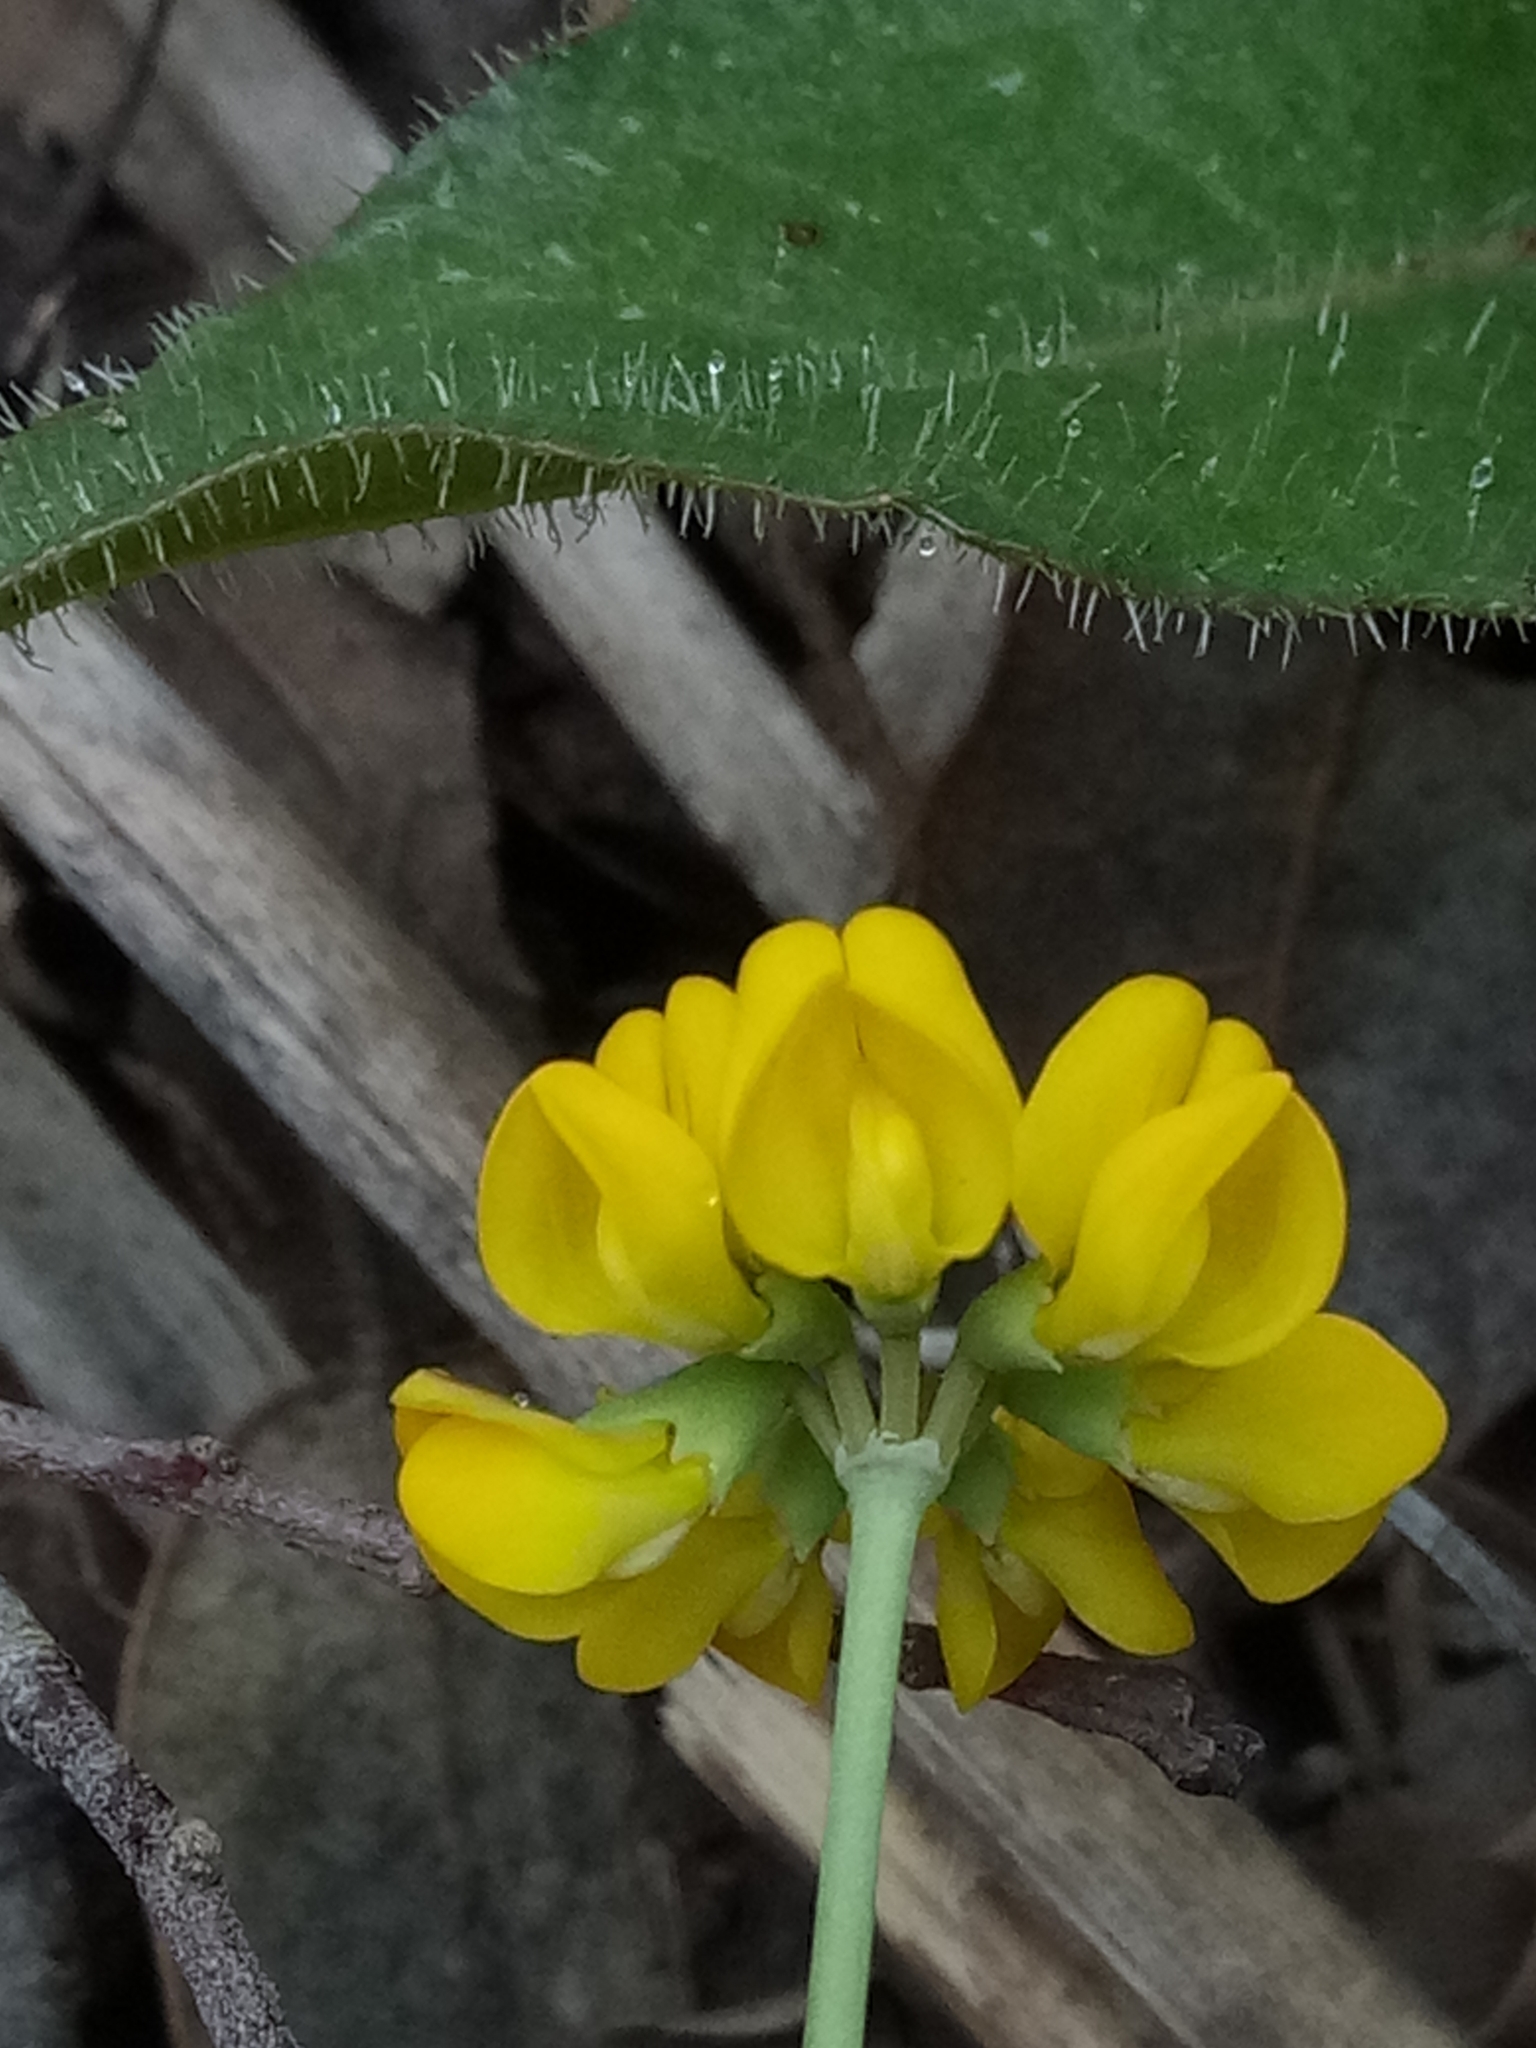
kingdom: Plantae
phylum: Tracheophyta
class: Magnoliopsida
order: Fabales
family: Fabaceae
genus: Coronilla
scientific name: Coronilla minima
